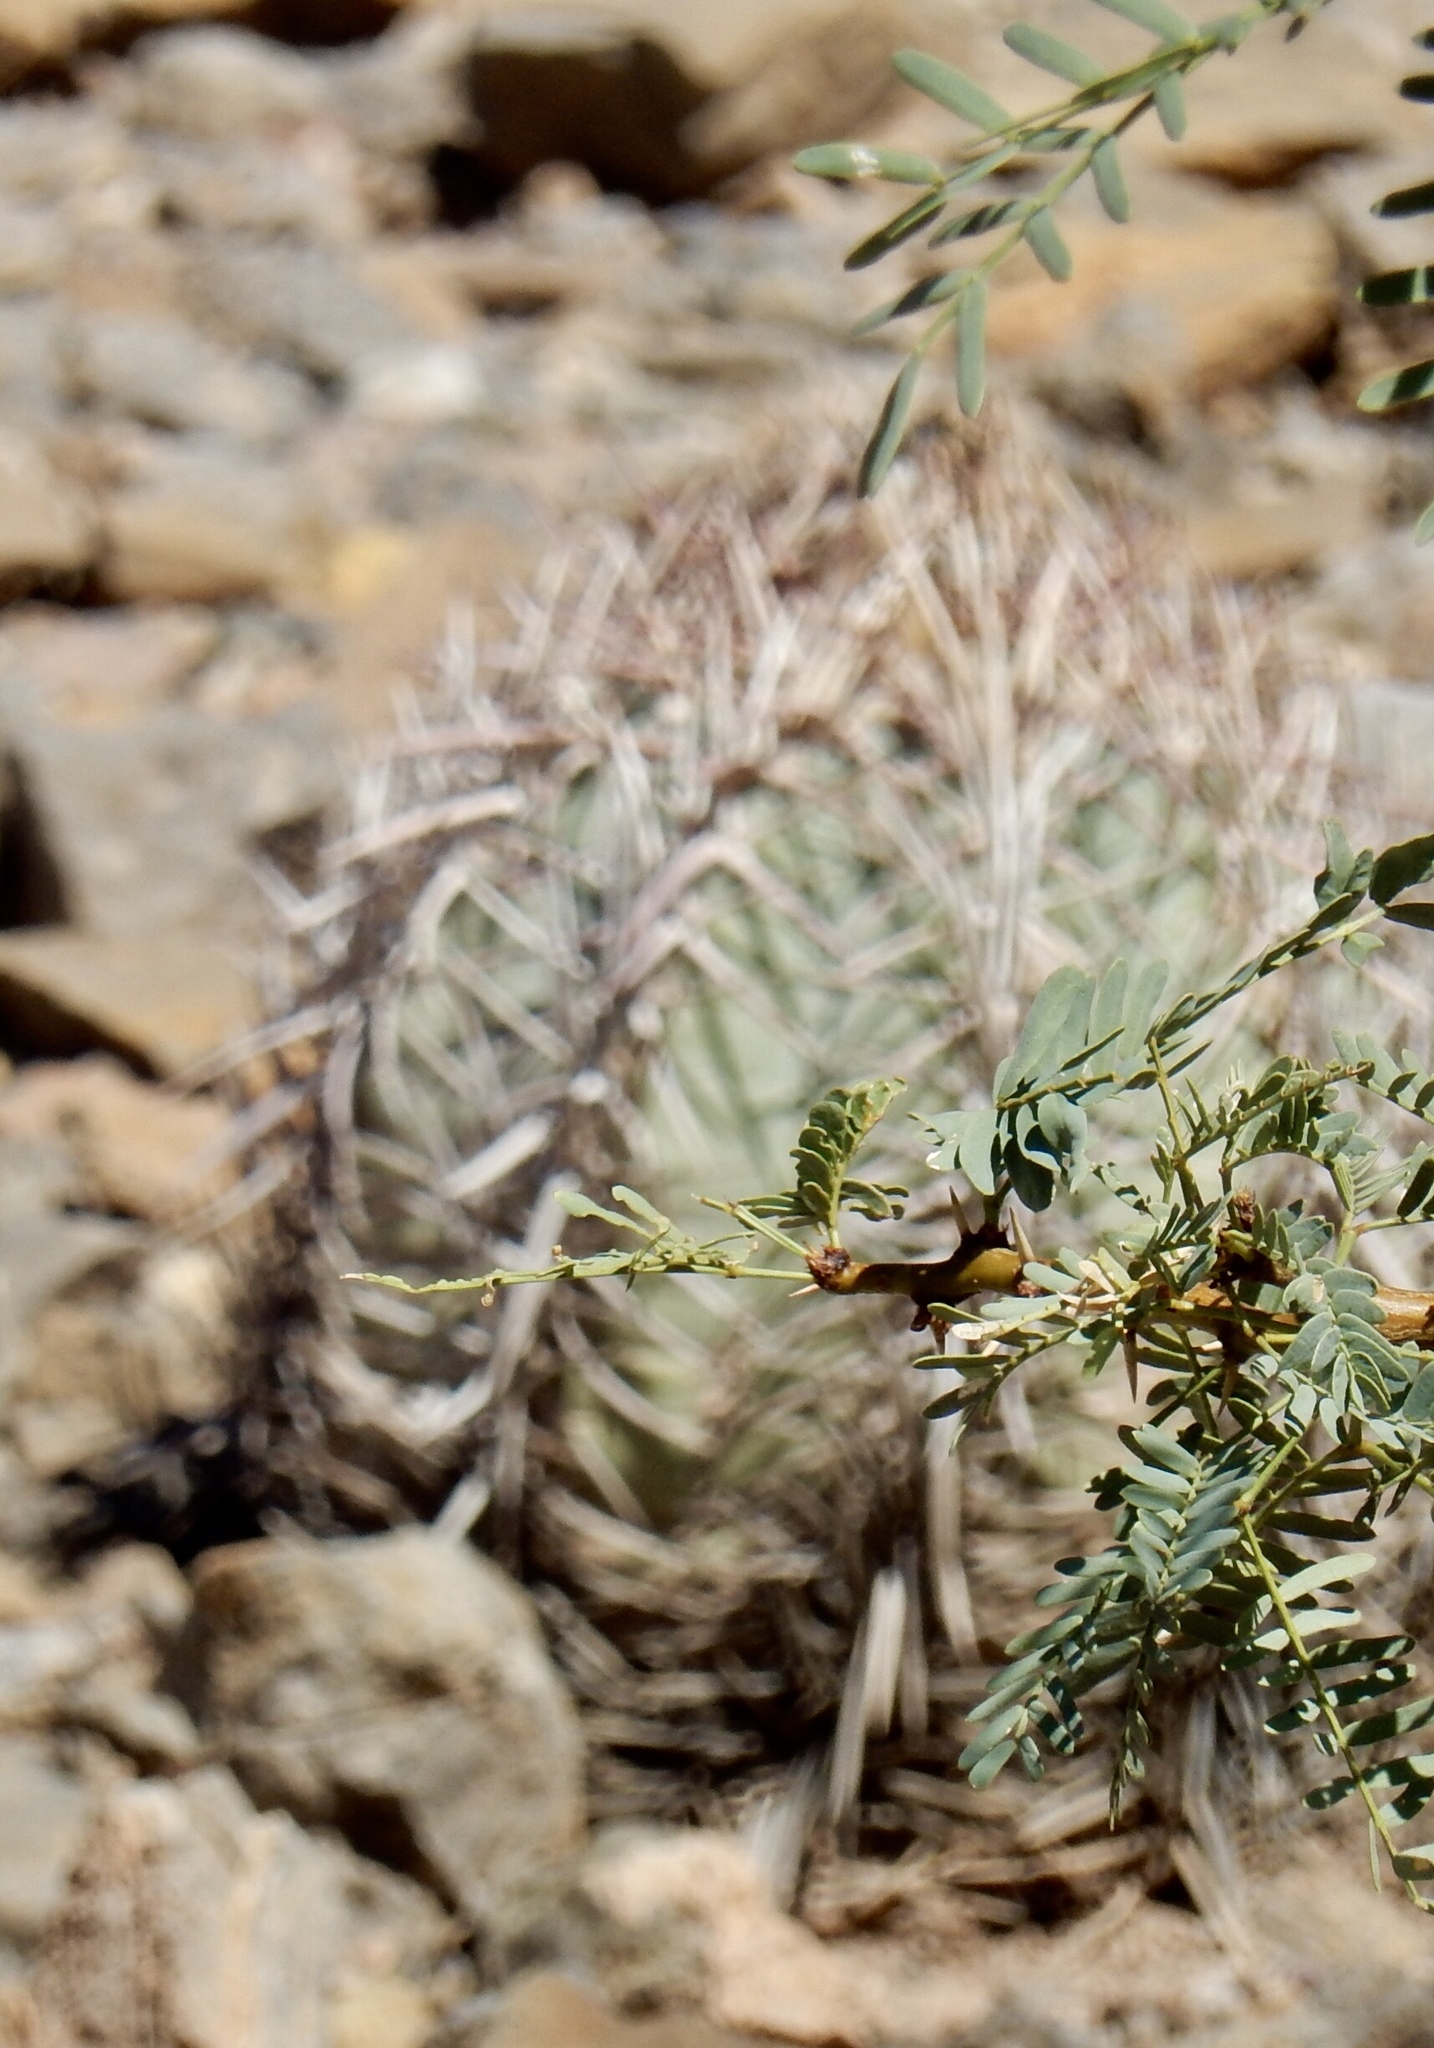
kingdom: Plantae
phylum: Tracheophyta
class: Magnoliopsida
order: Caryophyllales
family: Cactaceae
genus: Echinocactus
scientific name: Echinocactus horizonthalonius
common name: Devilshead
